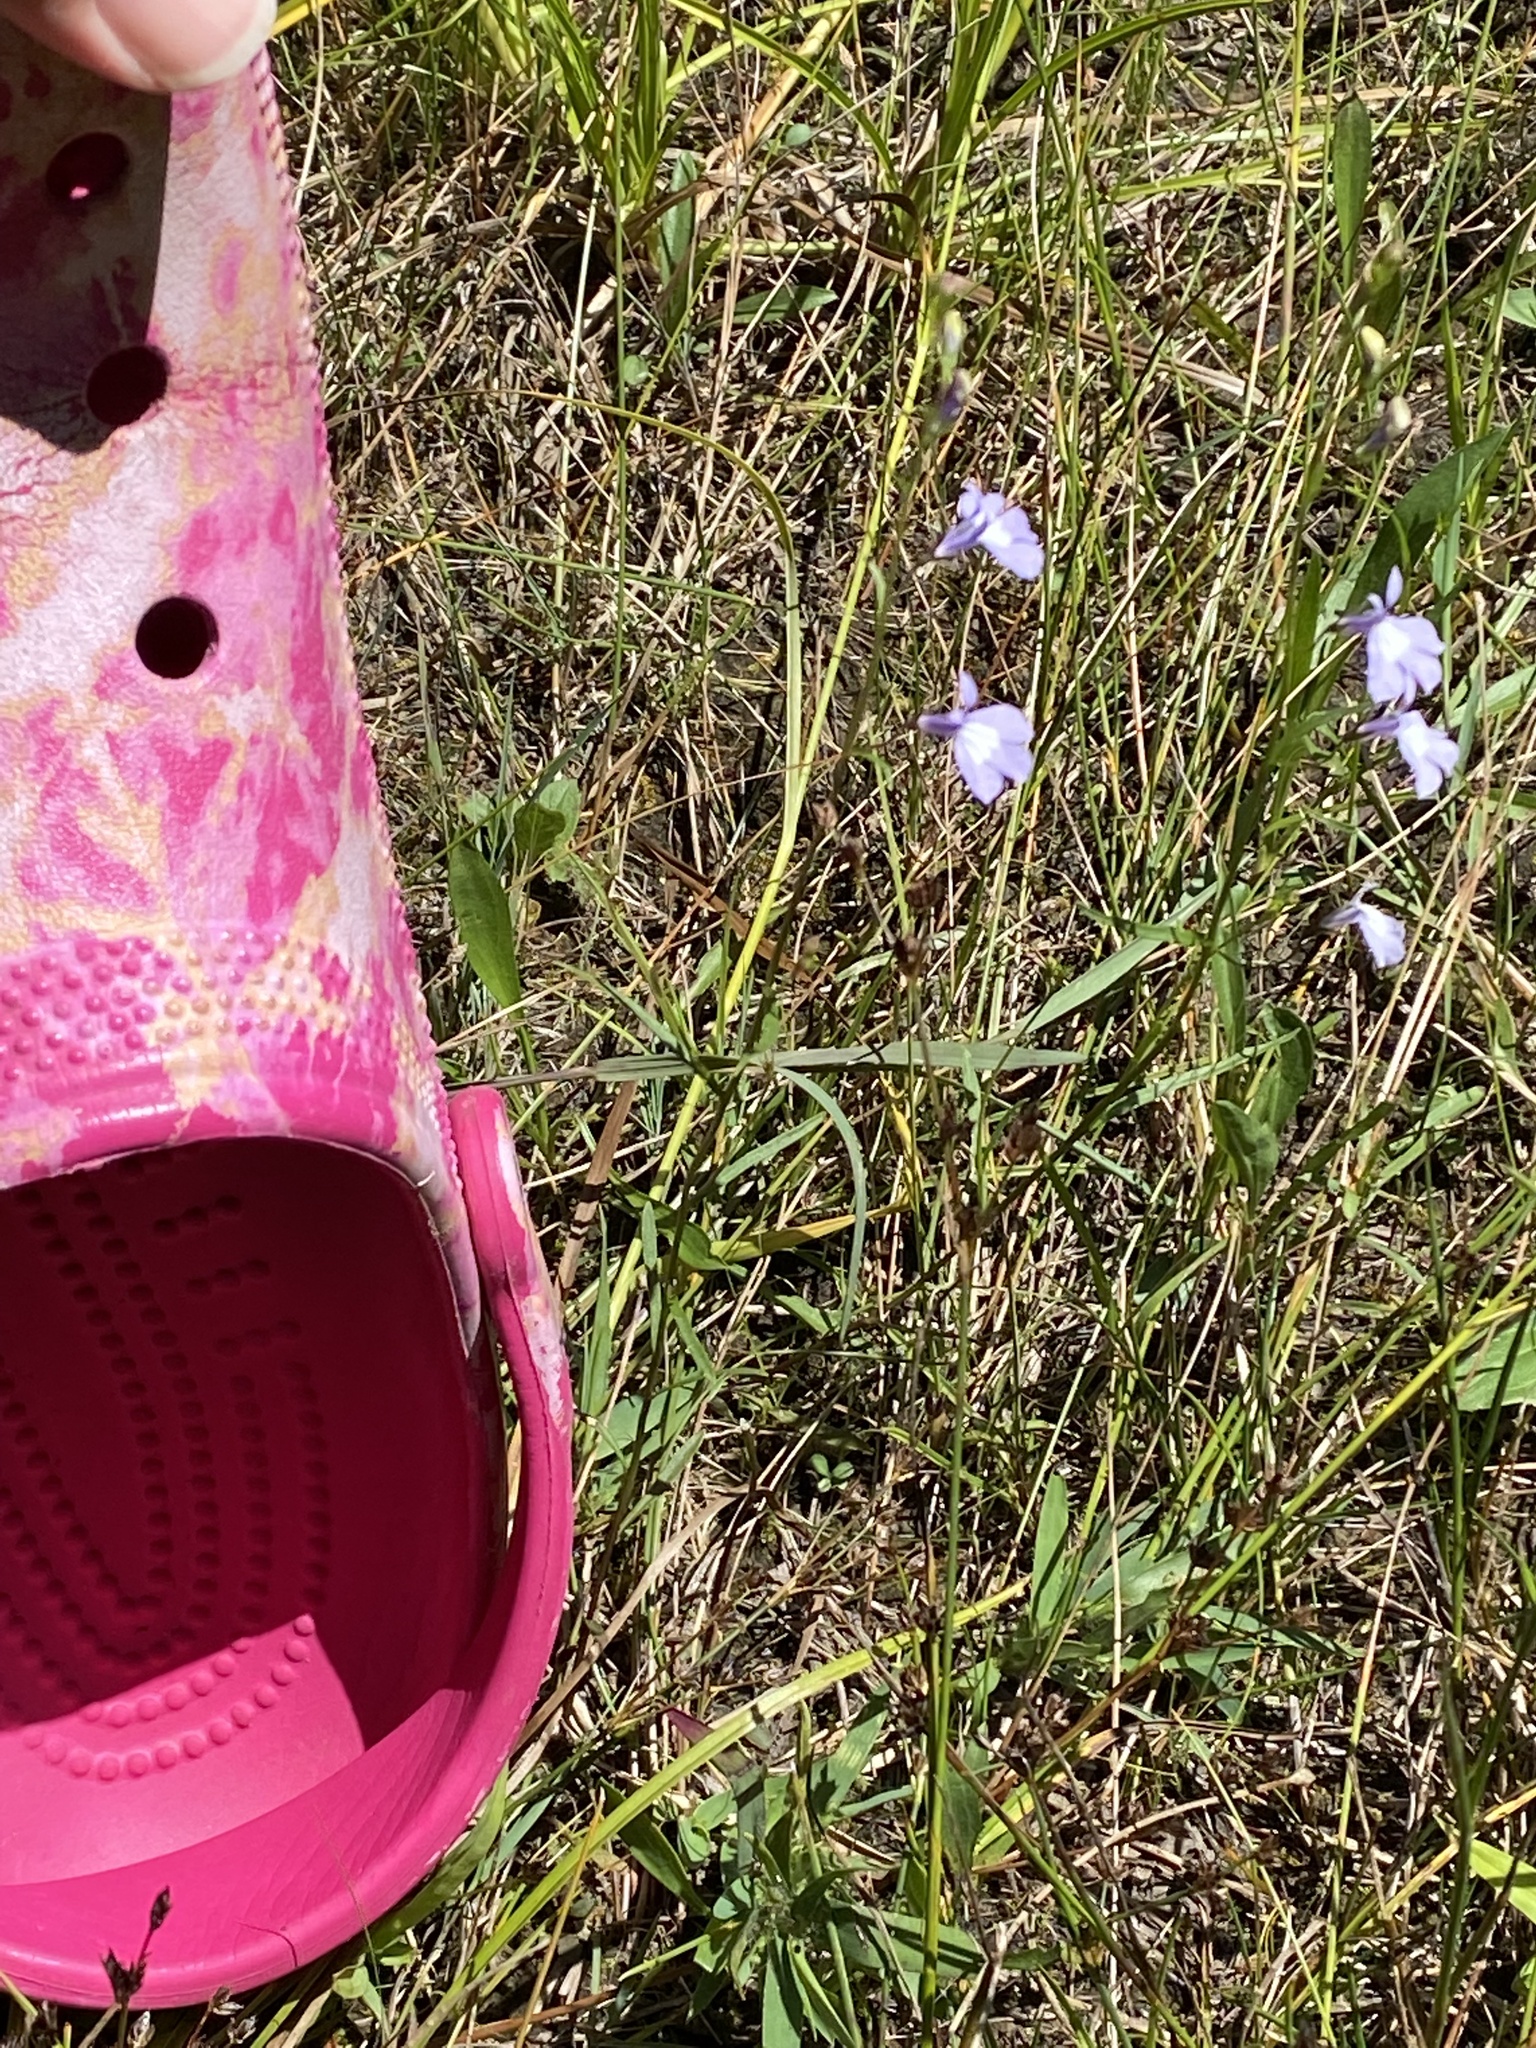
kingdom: Plantae
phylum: Tracheophyta
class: Magnoliopsida
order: Asterales
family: Campanulaceae
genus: Lobelia
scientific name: Lobelia kalmii
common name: Kalm's lobelia
